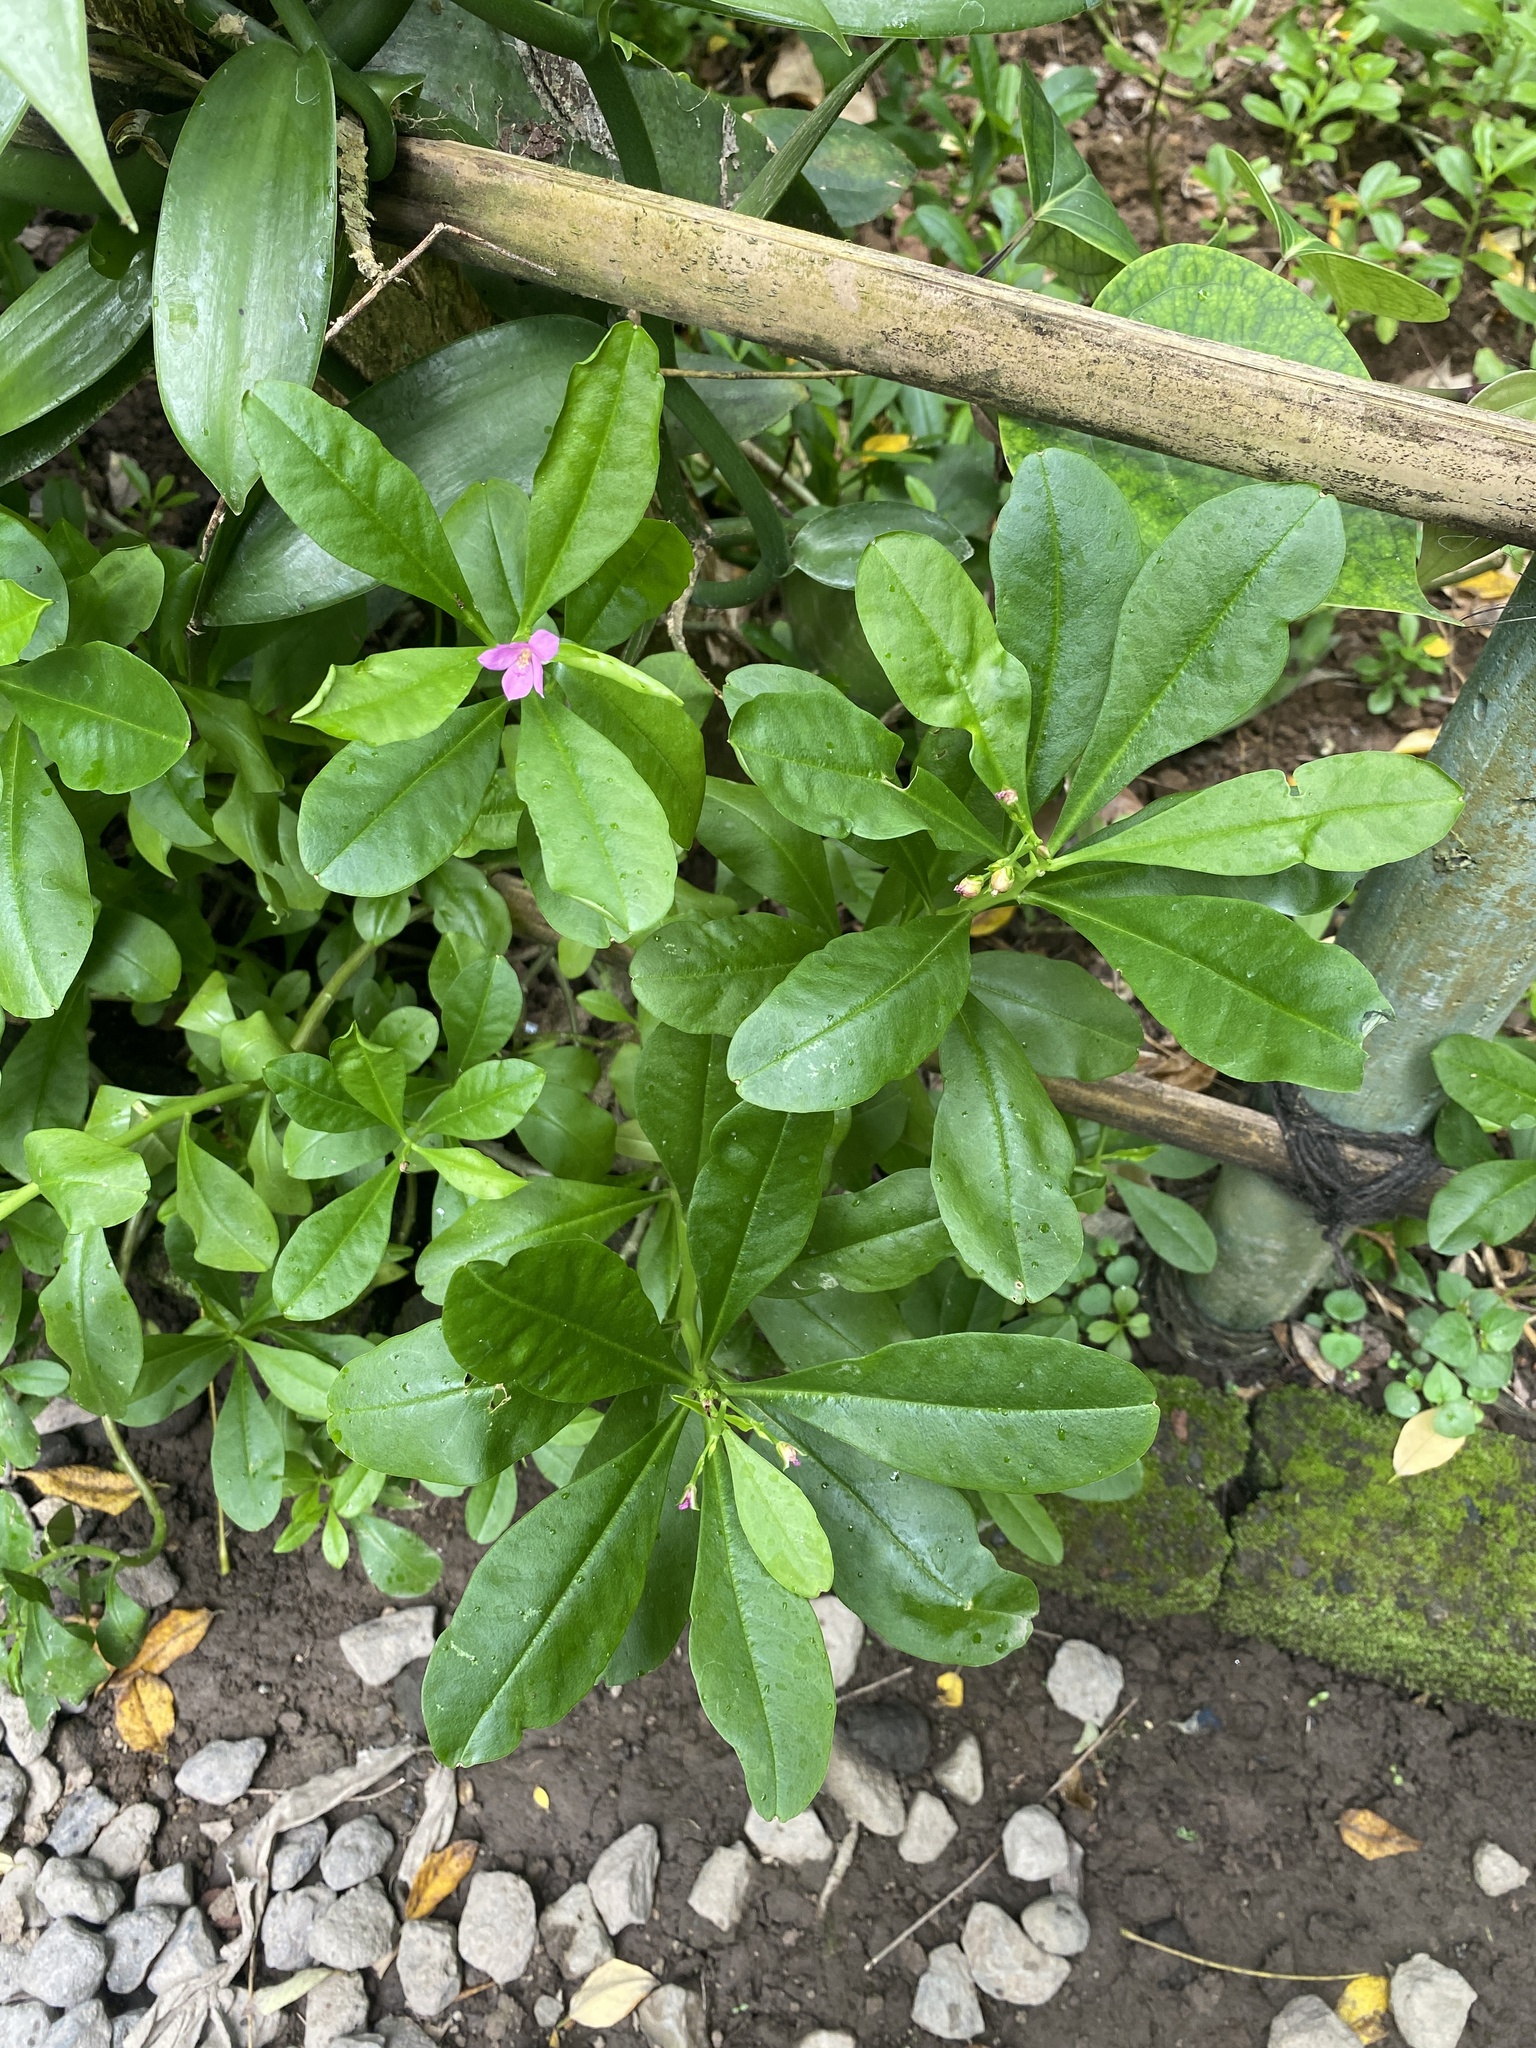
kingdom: Plantae
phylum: Tracheophyta
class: Magnoliopsida
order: Caryophyllales
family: Talinaceae
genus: Talinum
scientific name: Talinum fruticosum
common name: Verdolaga-francesa
